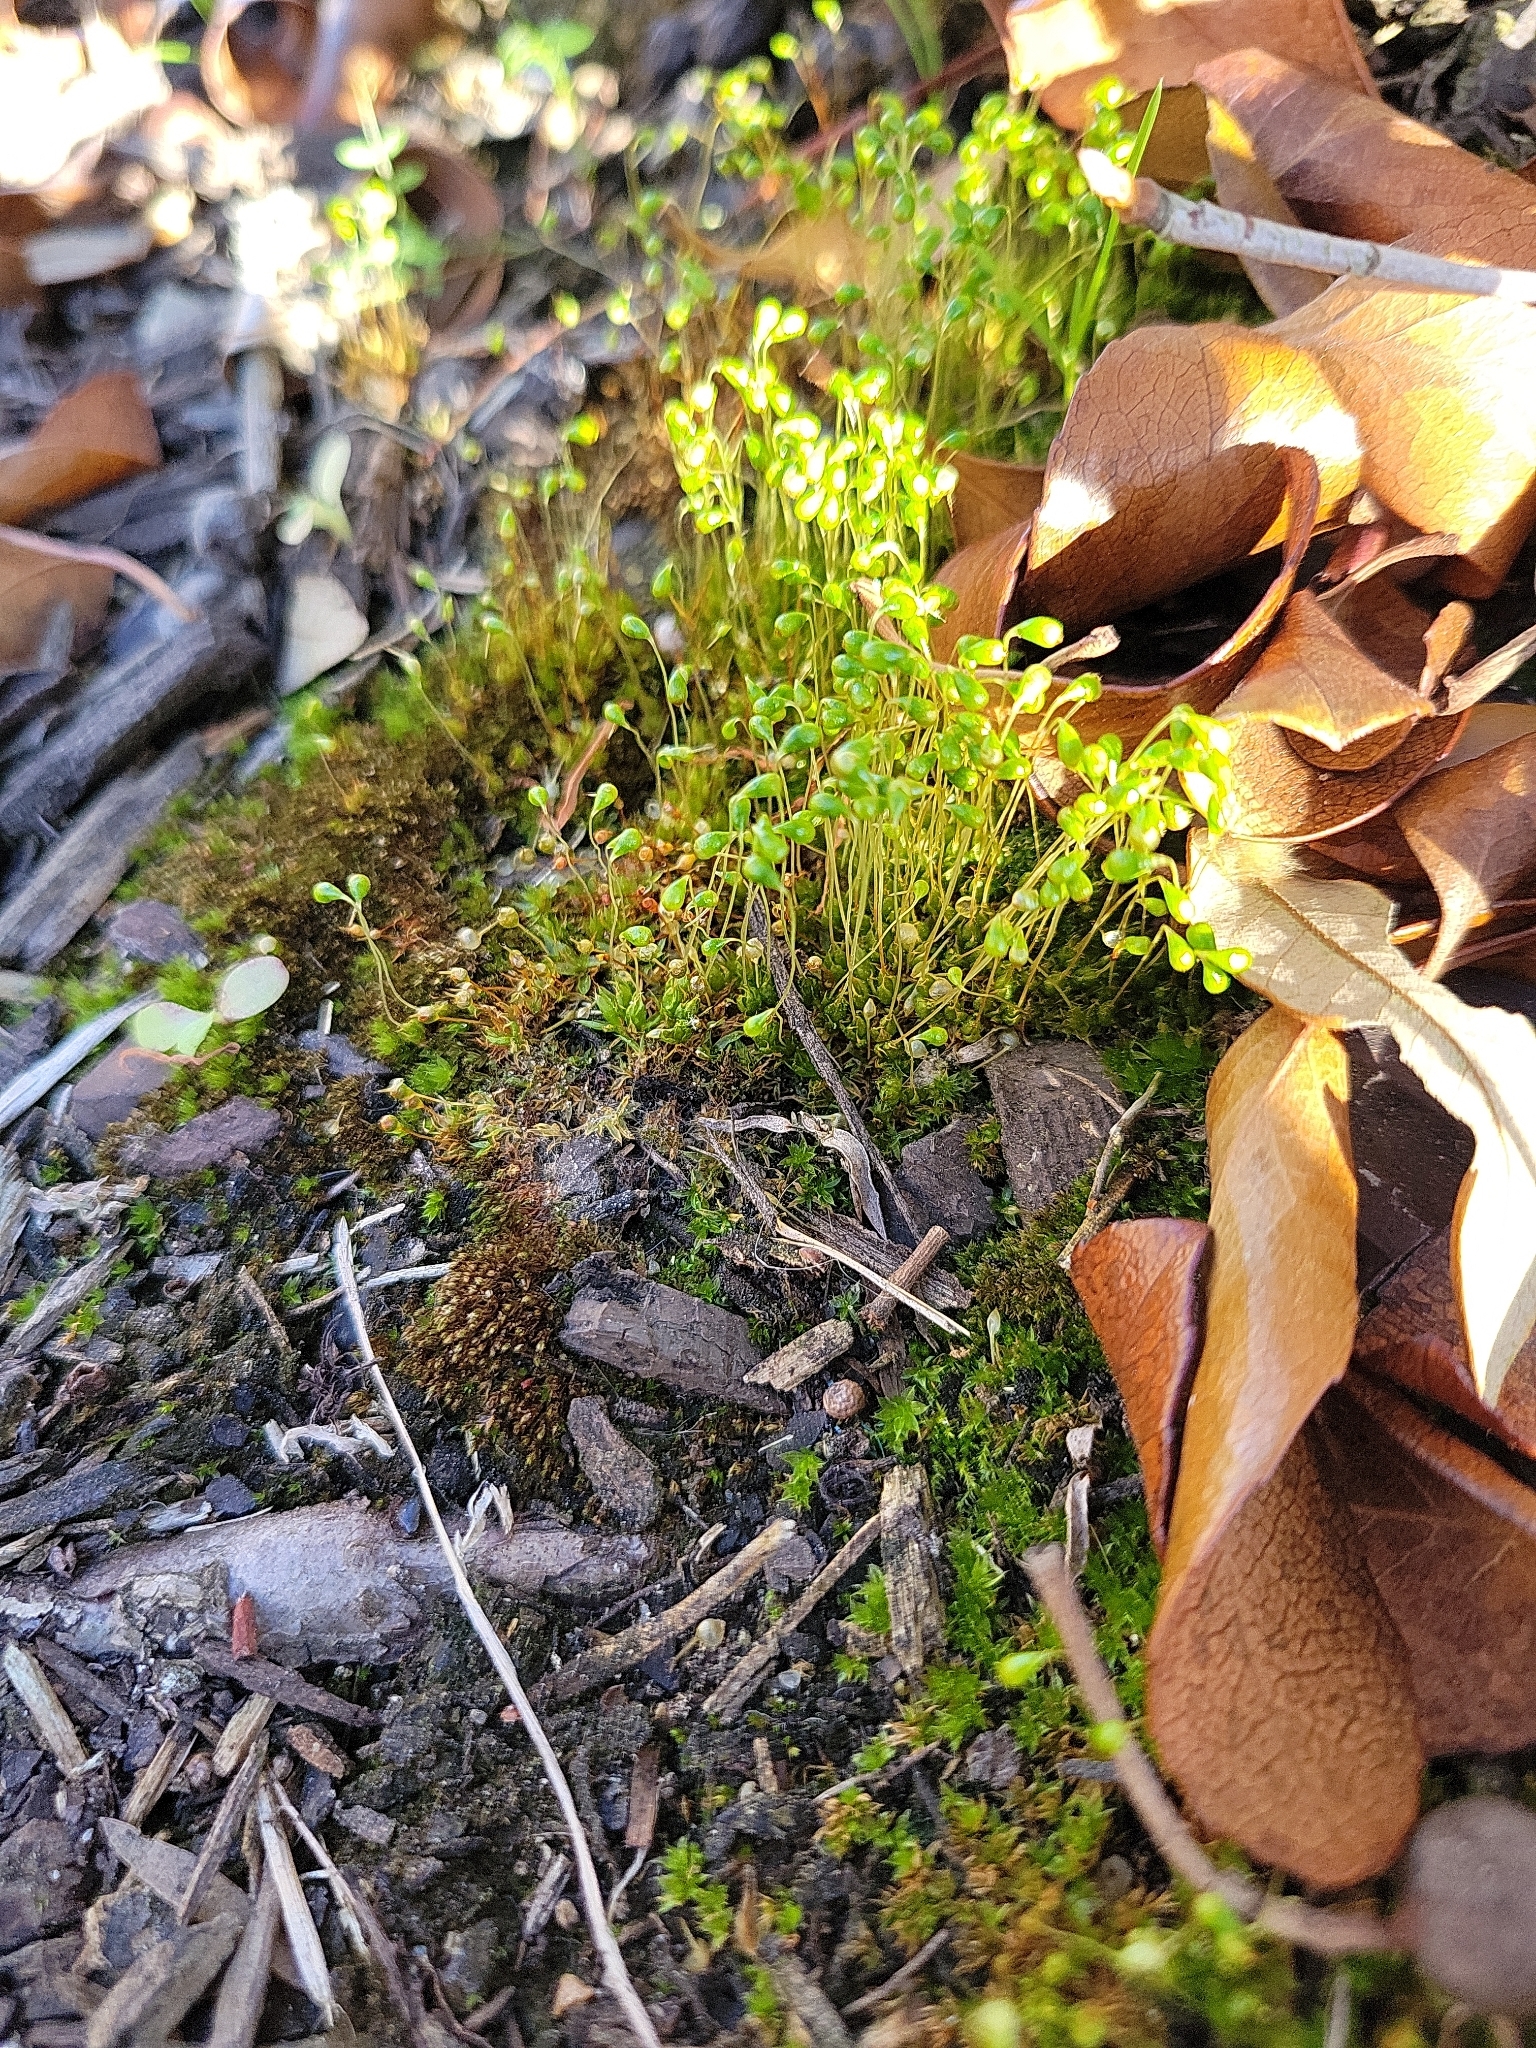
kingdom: Plantae
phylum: Bryophyta
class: Bryopsida
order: Funariales
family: Funariaceae
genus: Funaria
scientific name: Funaria hygrometrica
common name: Common cord moss
